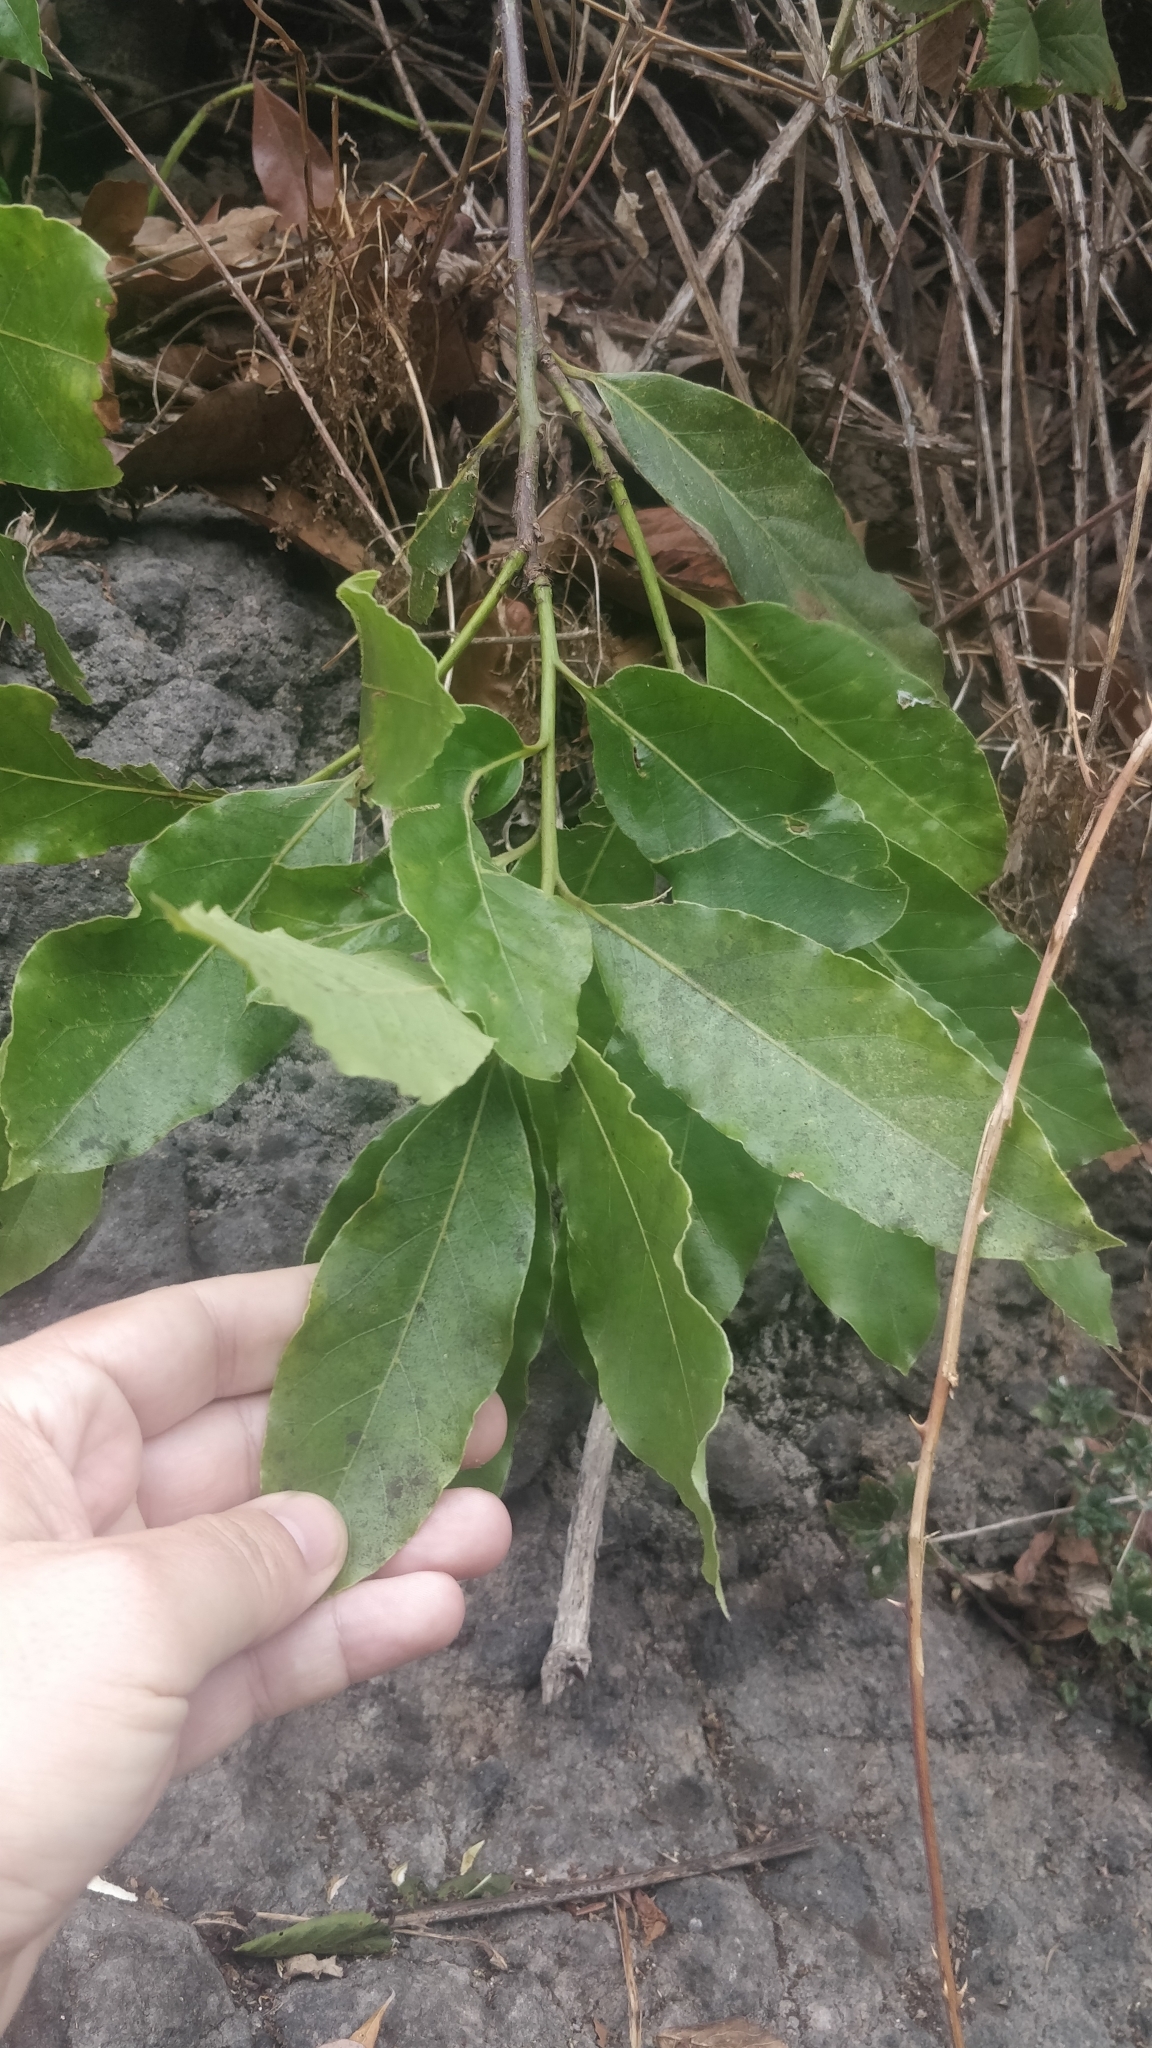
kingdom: Plantae
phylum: Tracheophyta
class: Magnoliopsida
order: Laurales
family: Lauraceae
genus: Laurus
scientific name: Laurus novocanariensis
